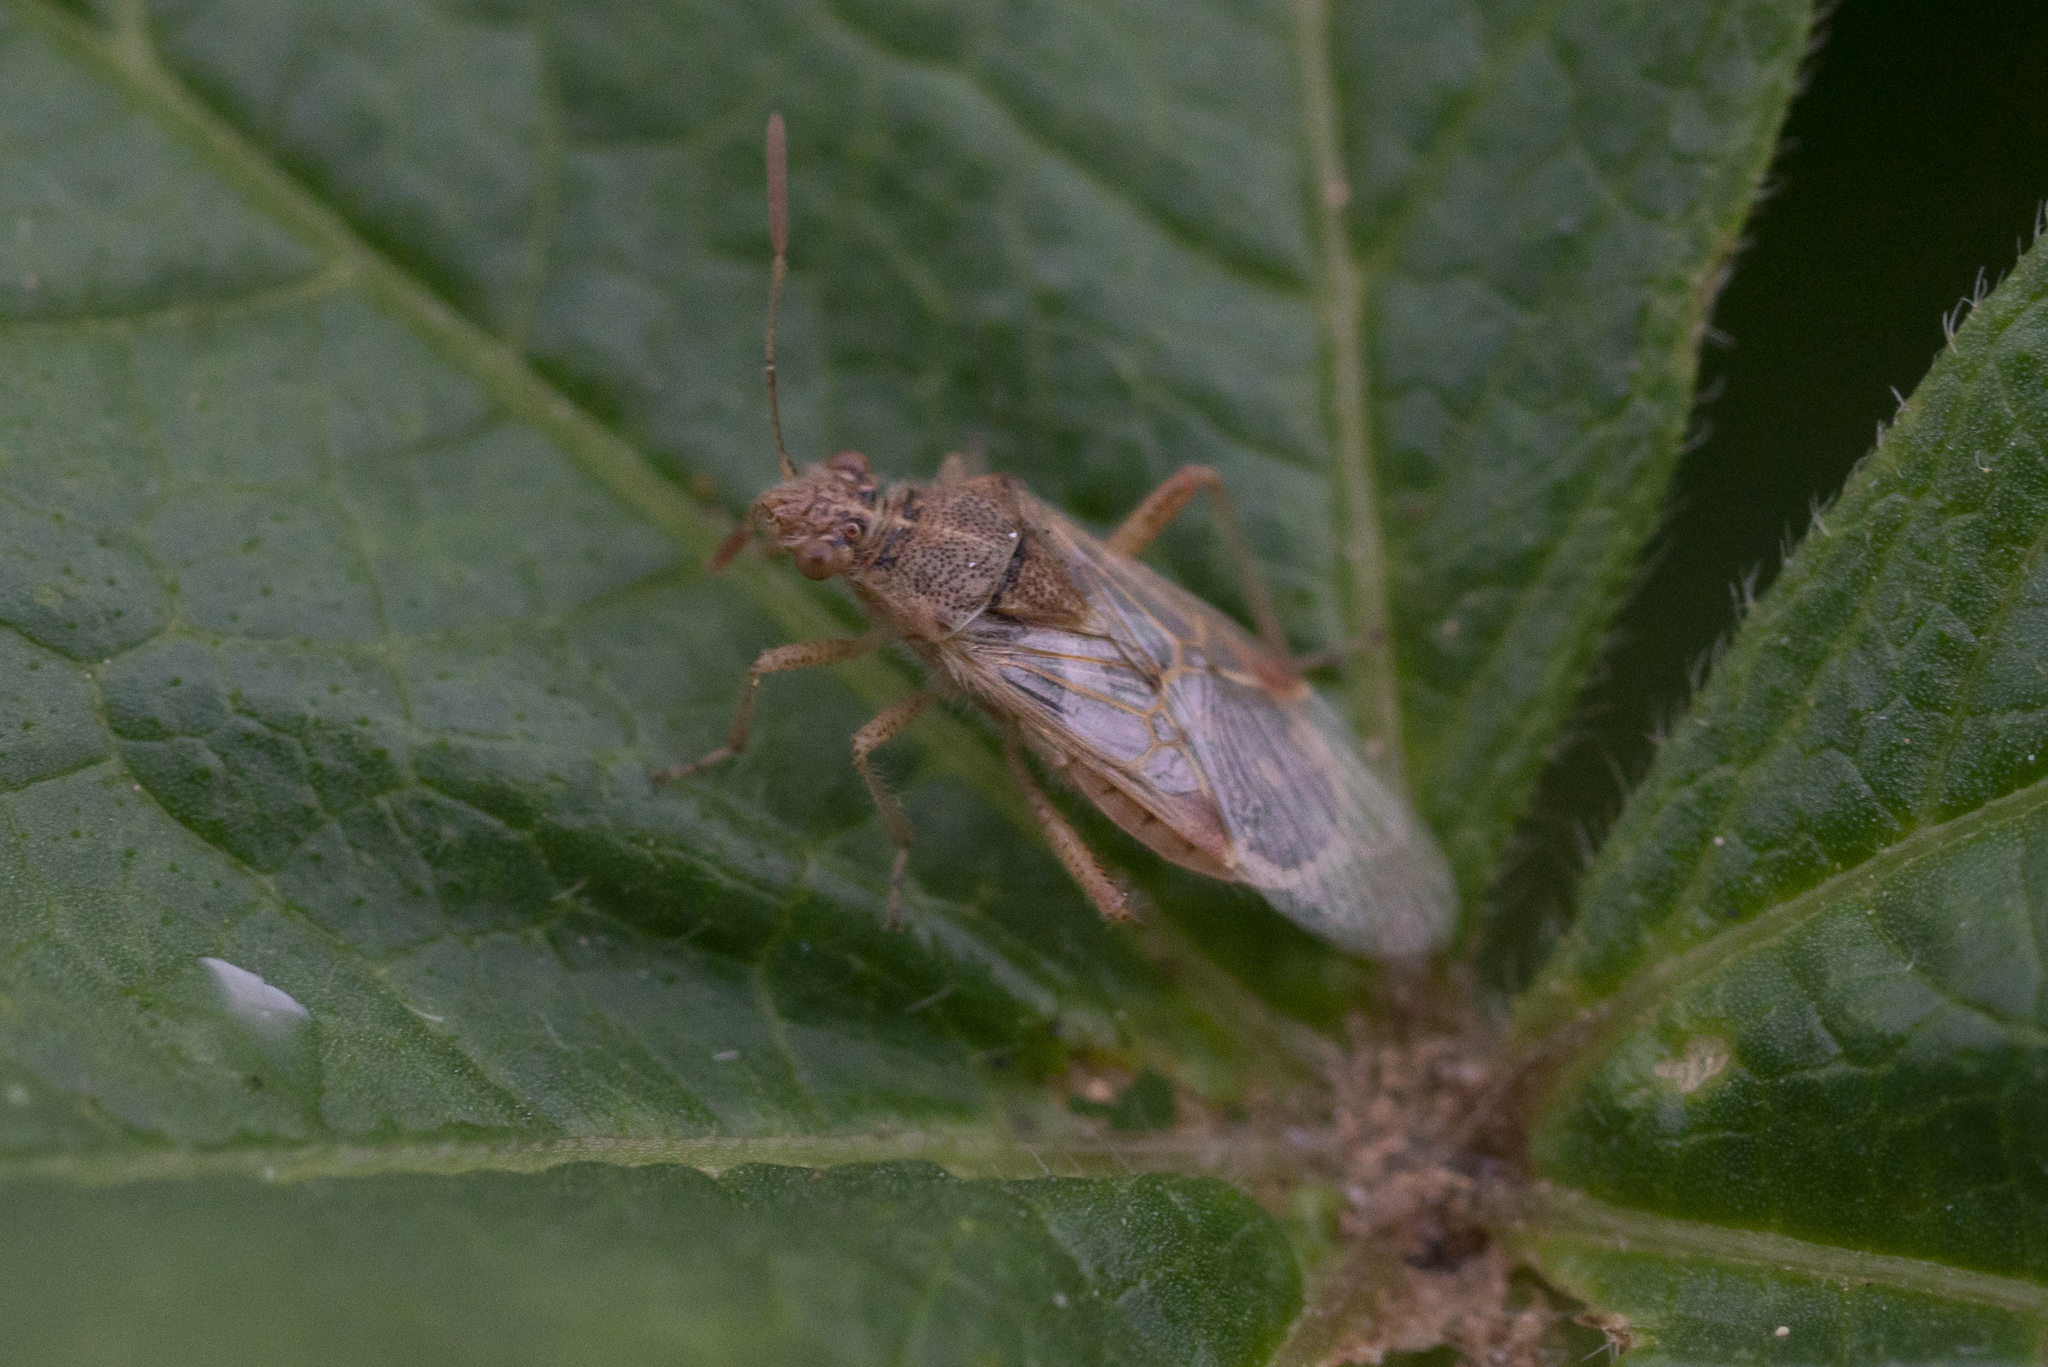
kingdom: Animalia
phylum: Arthropoda
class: Insecta
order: Hemiptera
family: Rhopalidae
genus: Liorhyssus
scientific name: Liorhyssus hyalinus
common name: Scentless plant bug
